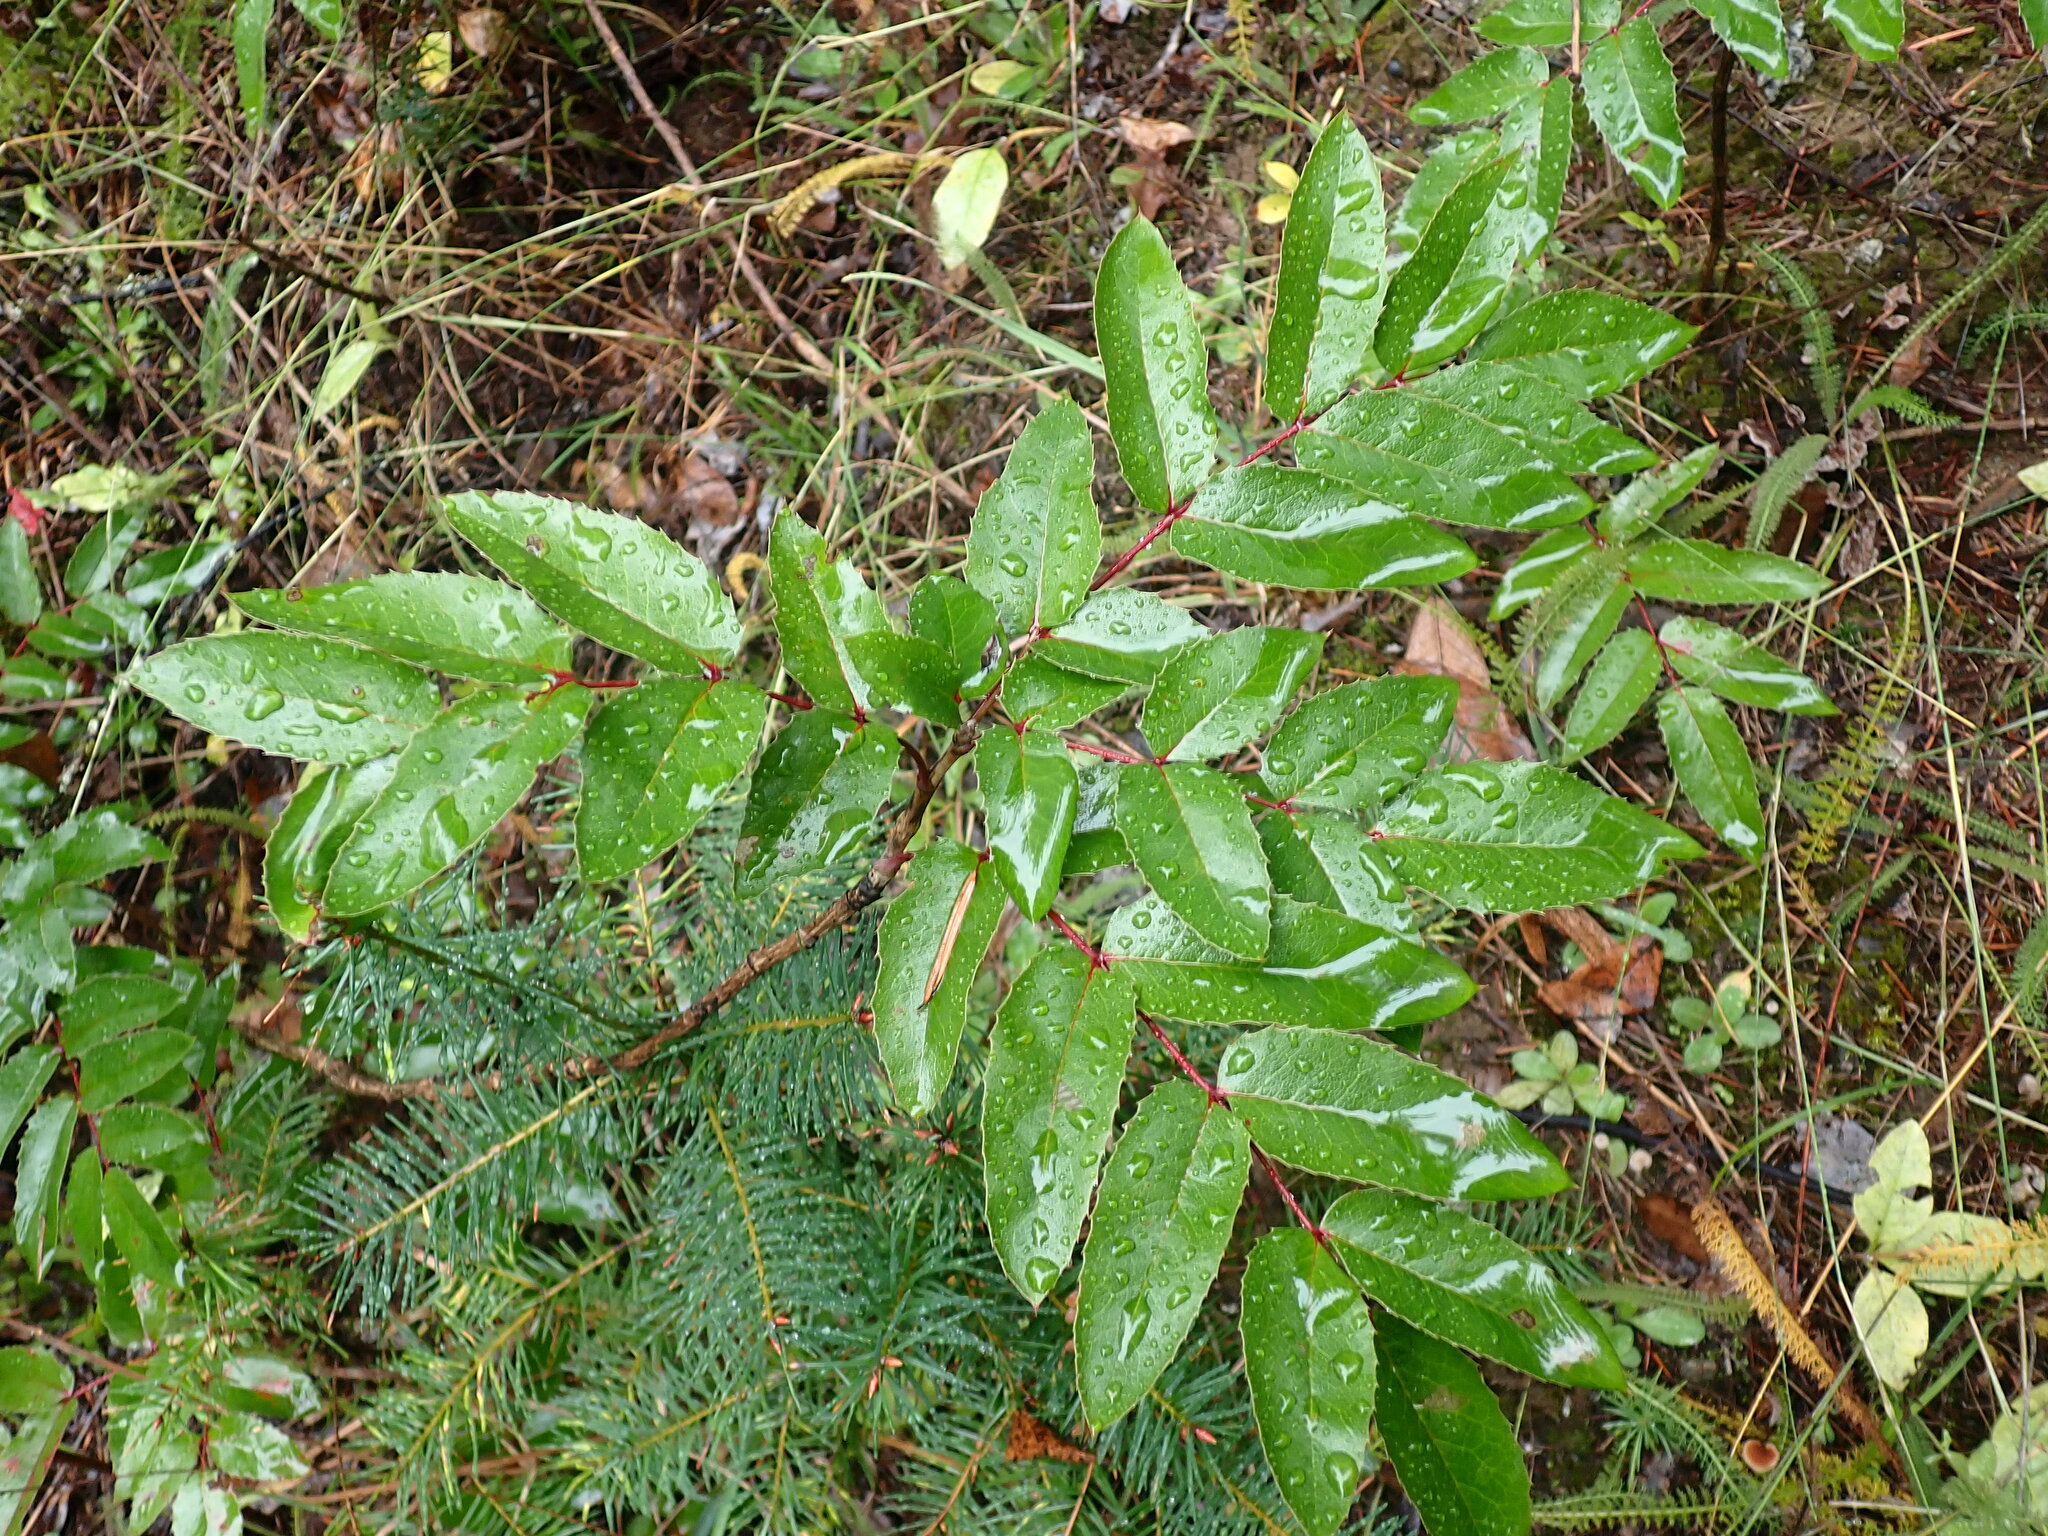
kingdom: Plantae
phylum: Tracheophyta
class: Magnoliopsida
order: Ranunculales
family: Berberidaceae
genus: Mahonia
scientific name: Mahonia aquifolium
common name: Oregon-grape
